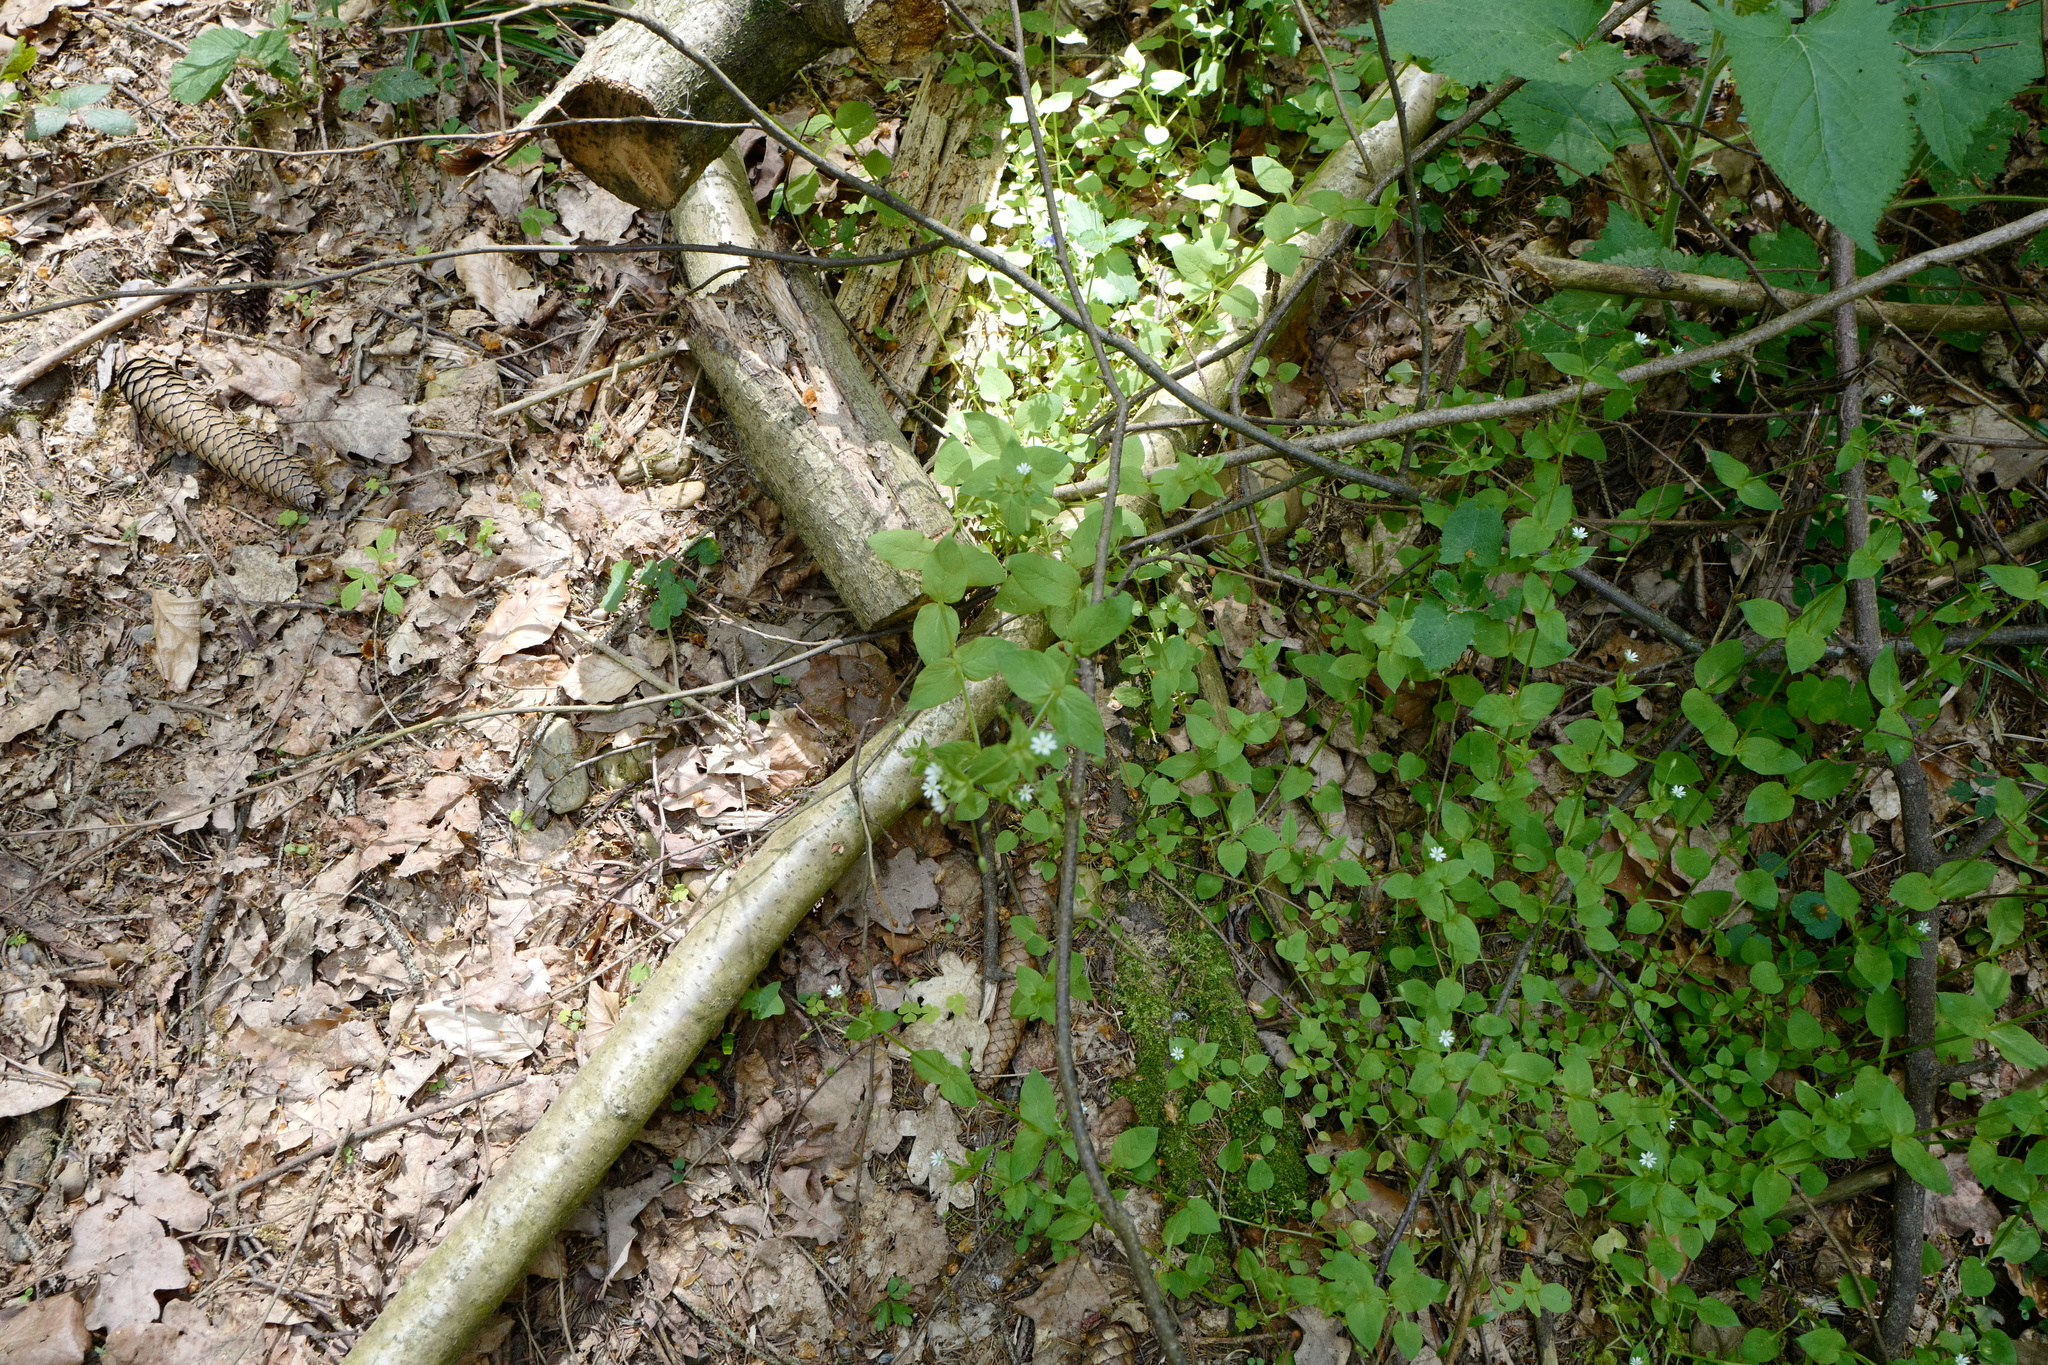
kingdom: Plantae
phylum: Tracheophyta
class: Magnoliopsida
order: Caryophyllales
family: Caryophyllaceae
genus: Stellaria
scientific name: Stellaria media
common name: Common chickweed
